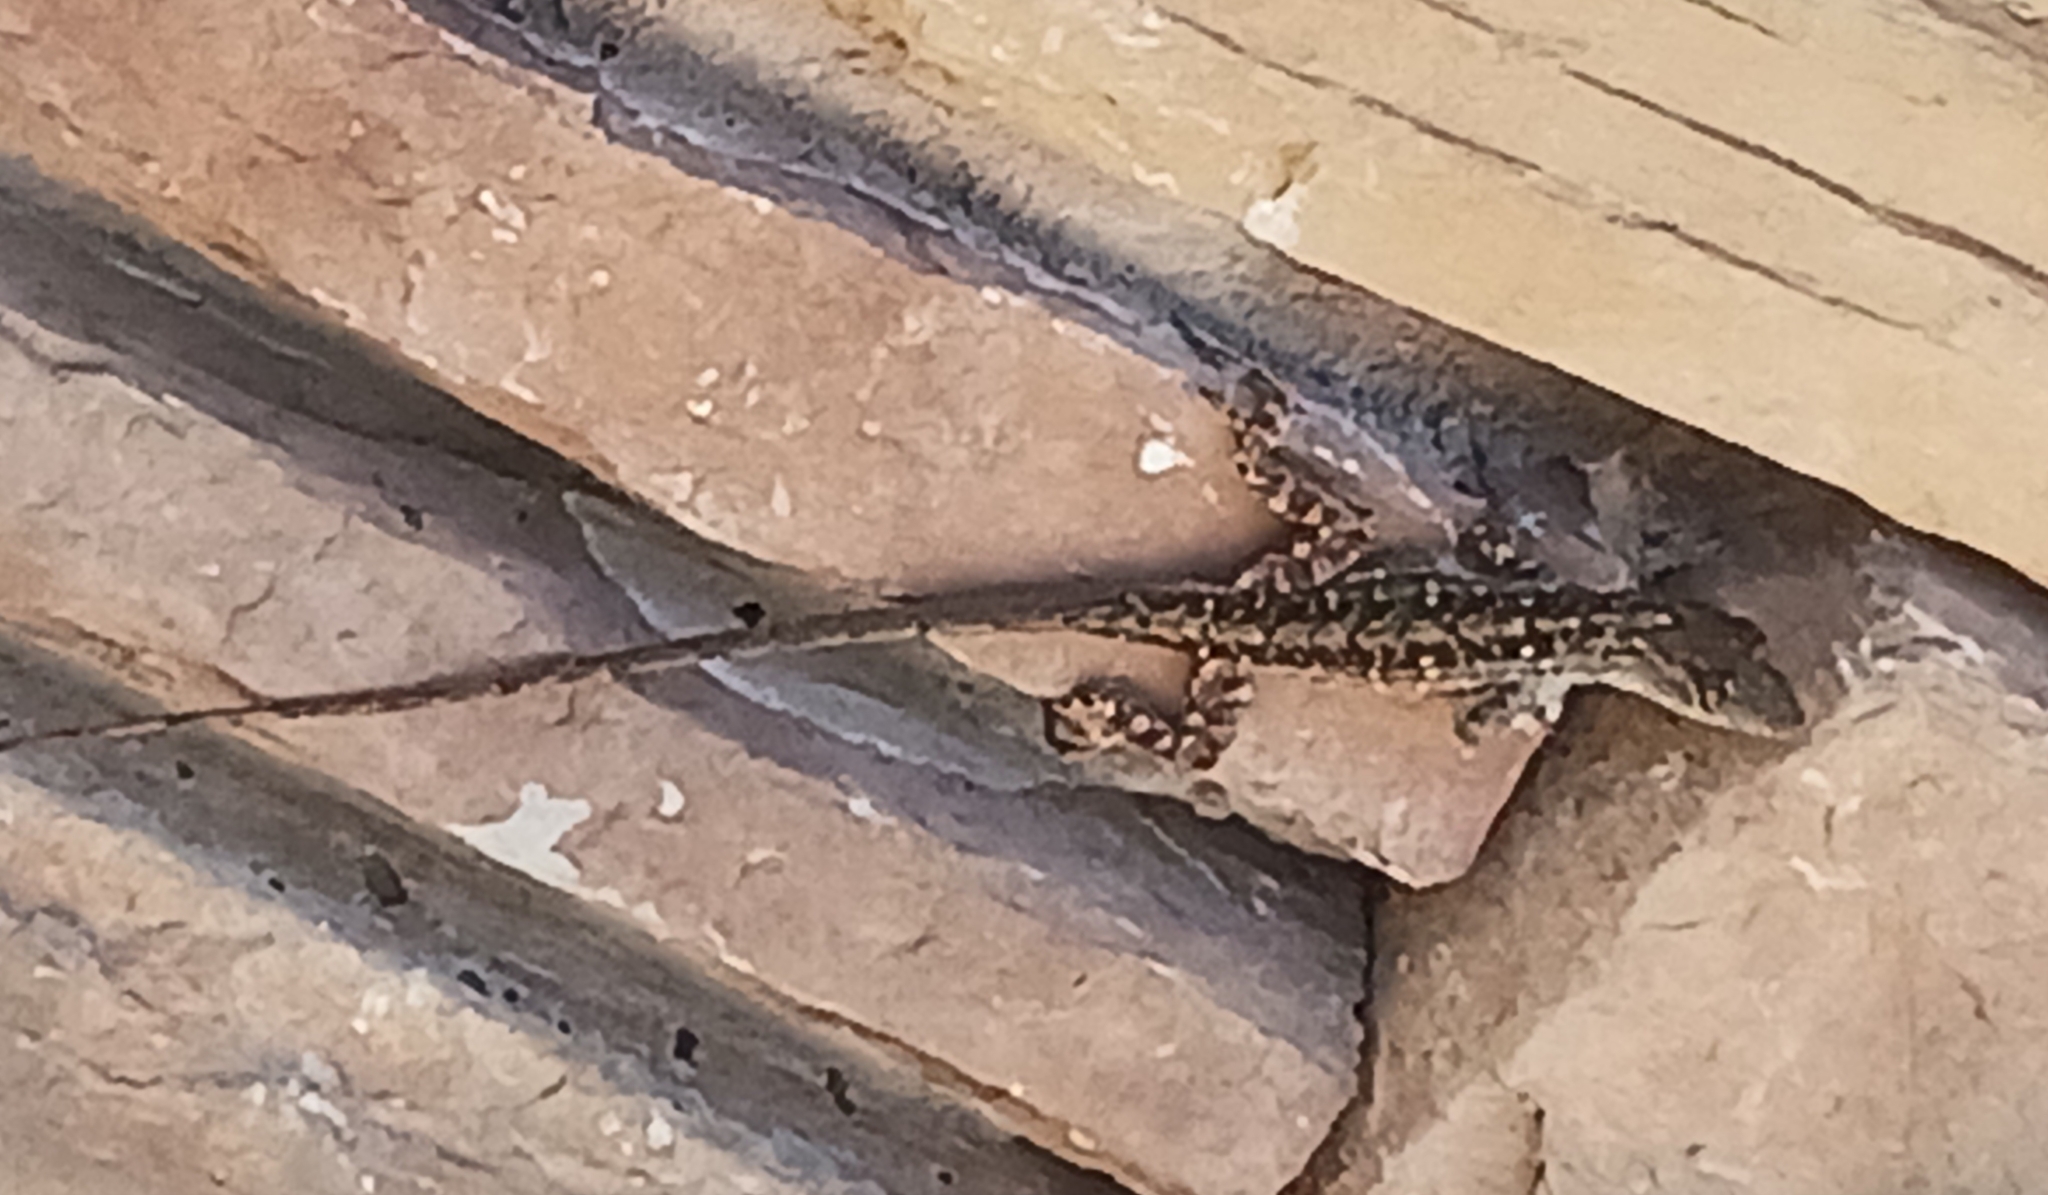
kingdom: Animalia
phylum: Chordata
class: Squamata
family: Dactyloidae
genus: Anolis
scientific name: Anolis sagrei
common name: Brown anole
